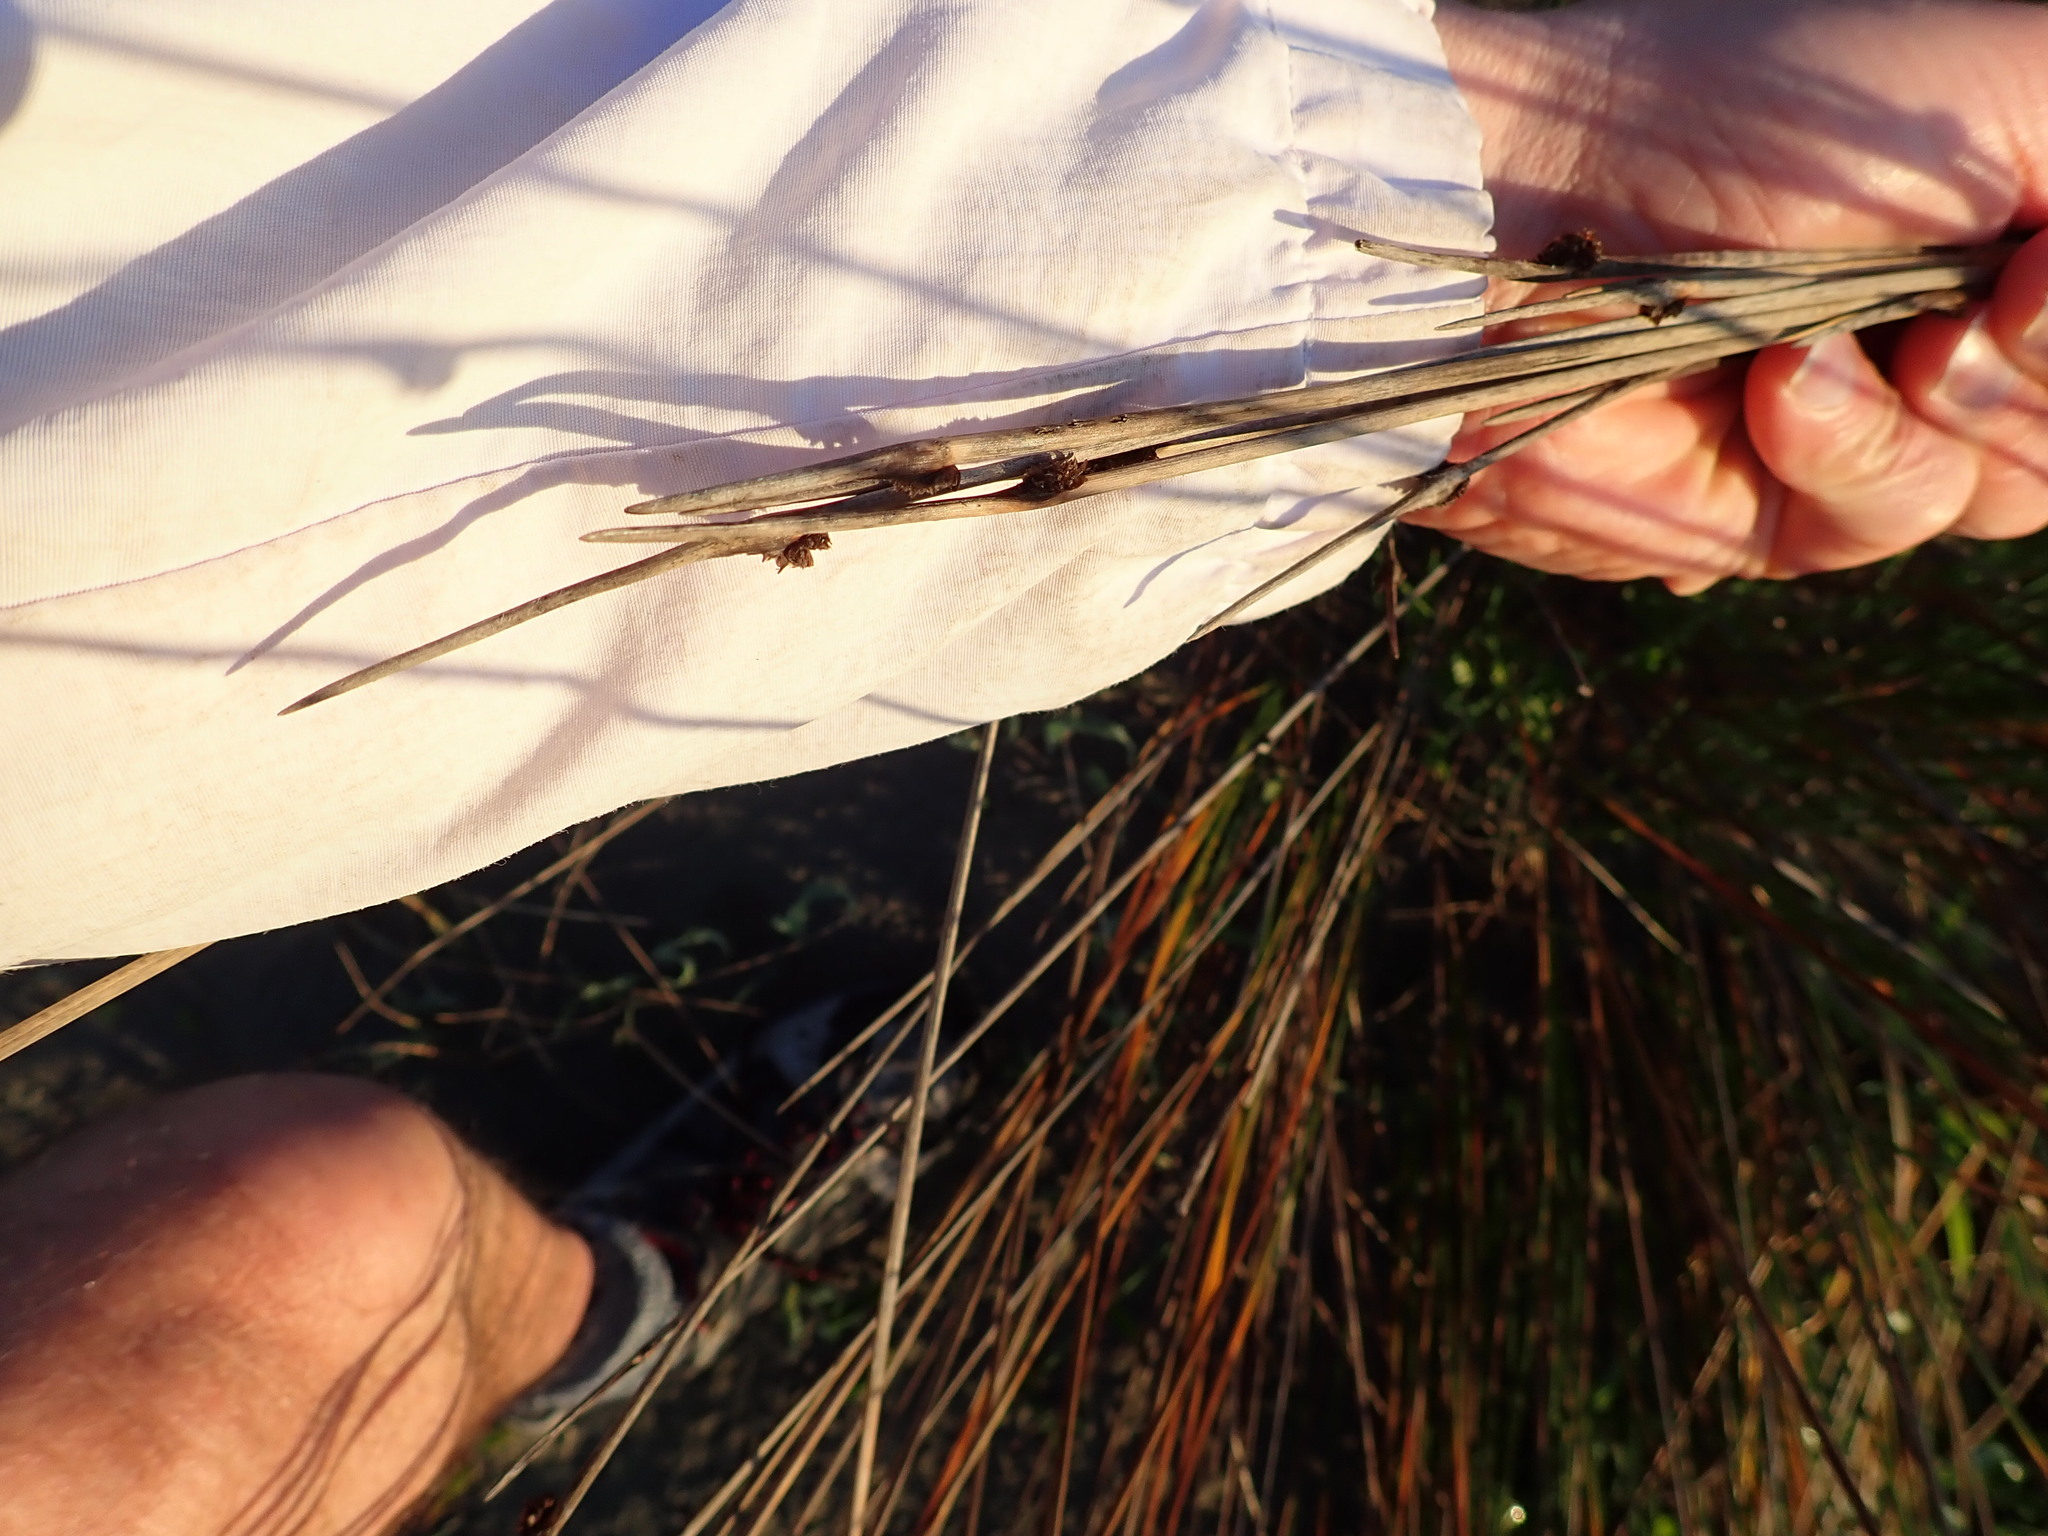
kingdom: Plantae
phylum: Tracheophyta
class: Liliopsida
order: Poales
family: Cyperaceae
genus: Ficinia
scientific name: Ficinia nodosa
